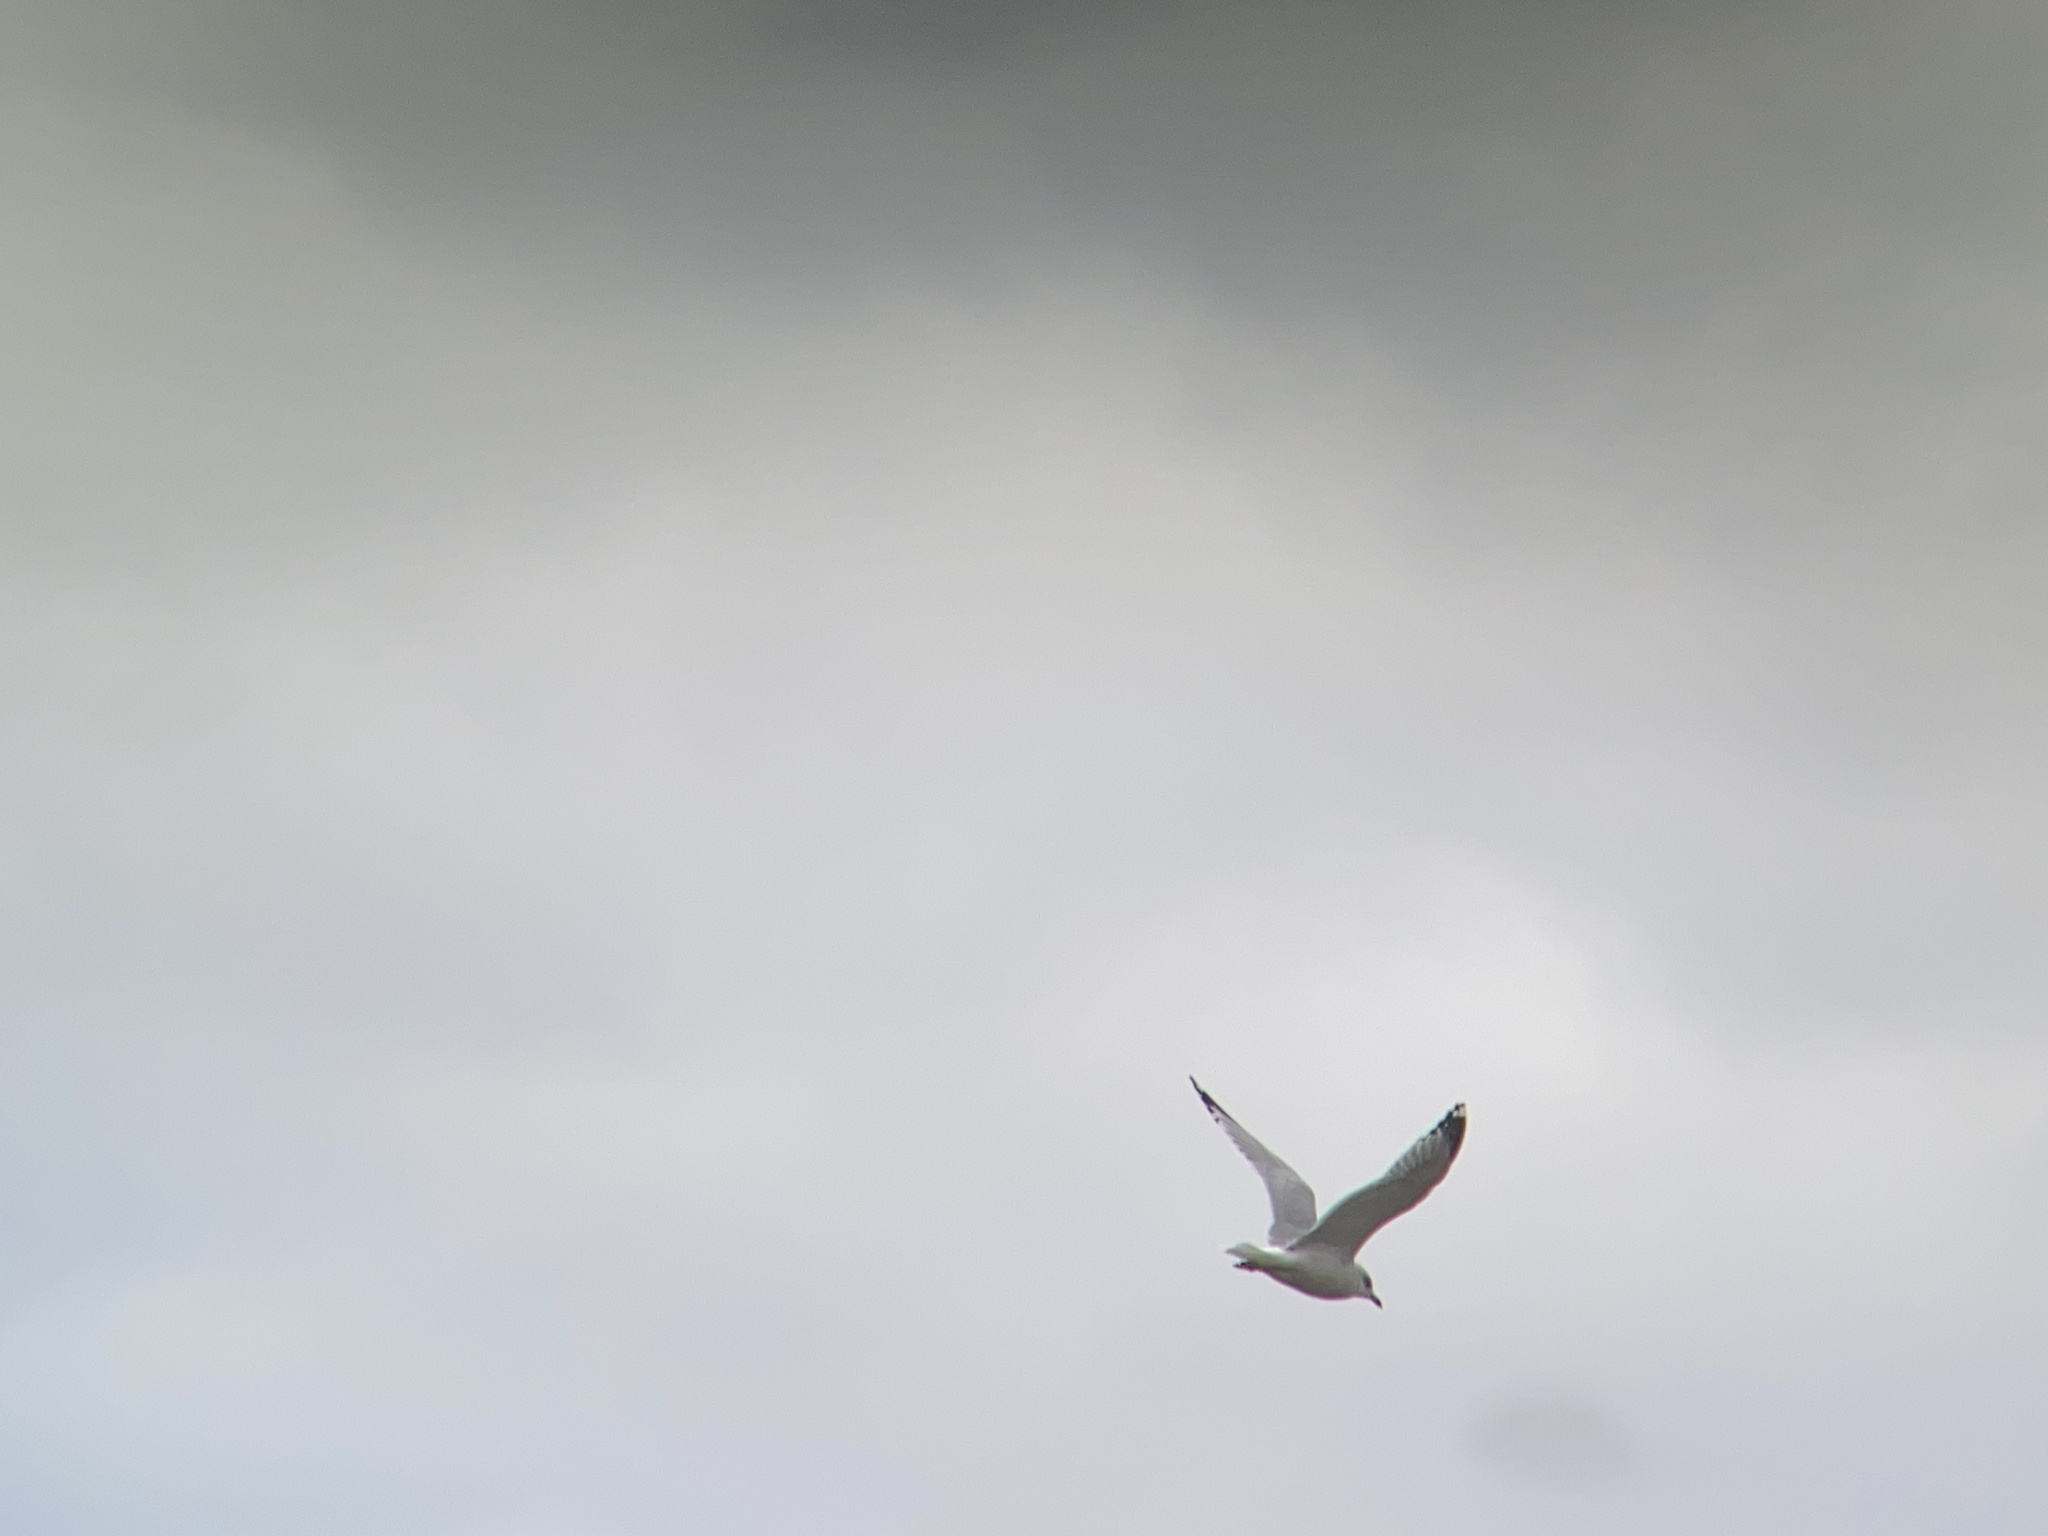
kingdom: Animalia
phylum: Chordata
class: Aves
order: Charadriiformes
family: Laridae
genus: Larus
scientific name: Larus delawarensis
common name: Ring-billed gull
